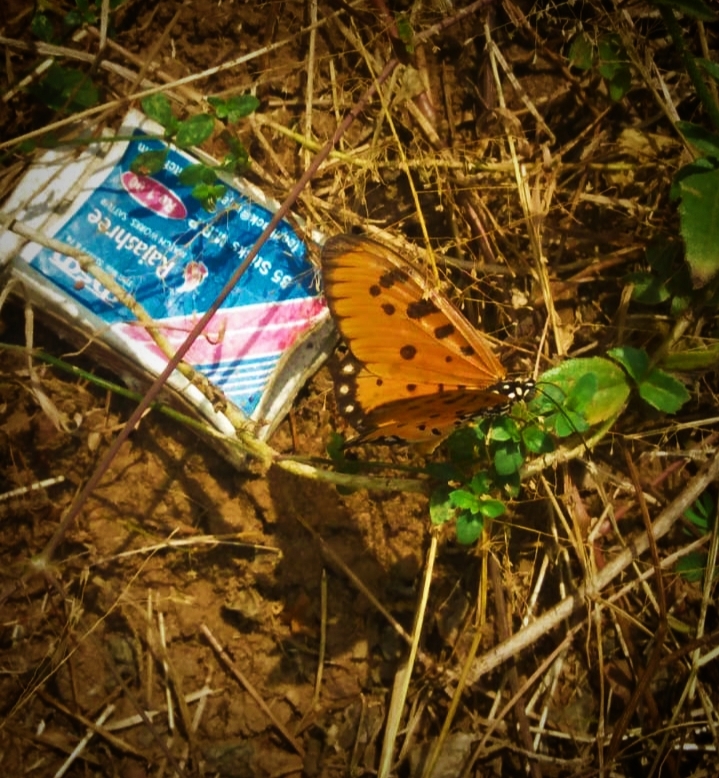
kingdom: Animalia
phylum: Arthropoda
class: Insecta
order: Lepidoptera
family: Nymphalidae
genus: Acraea
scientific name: Acraea terpsicore
